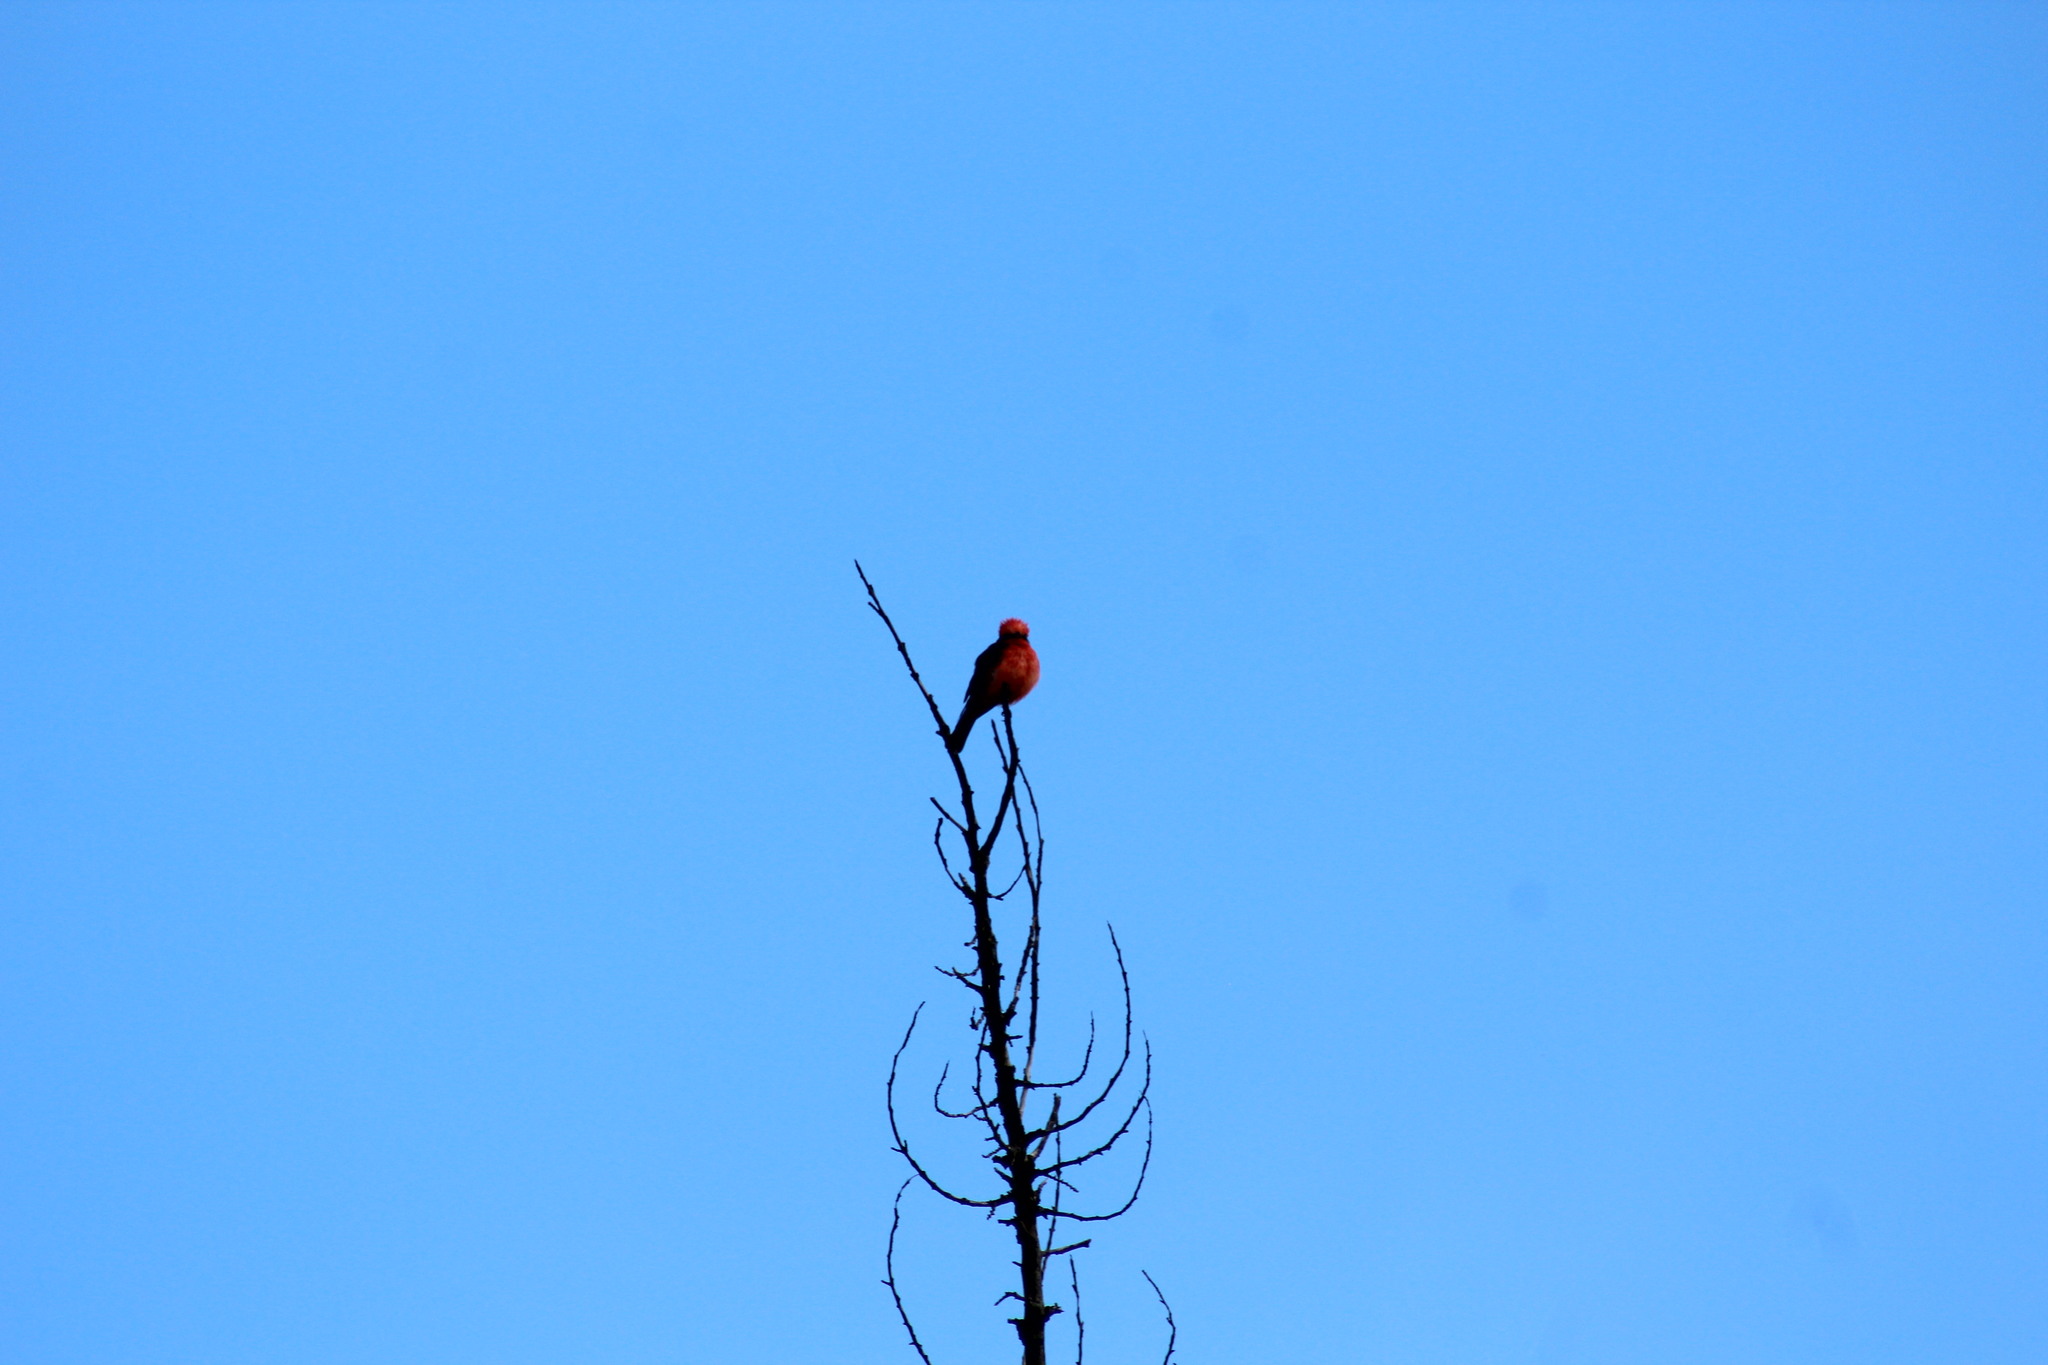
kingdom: Animalia
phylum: Chordata
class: Aves
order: Passeriformes
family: Tyrannidae
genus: Pyrocephalus
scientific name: Pyrocephalus rubinus
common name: Vermilion flycatcher
